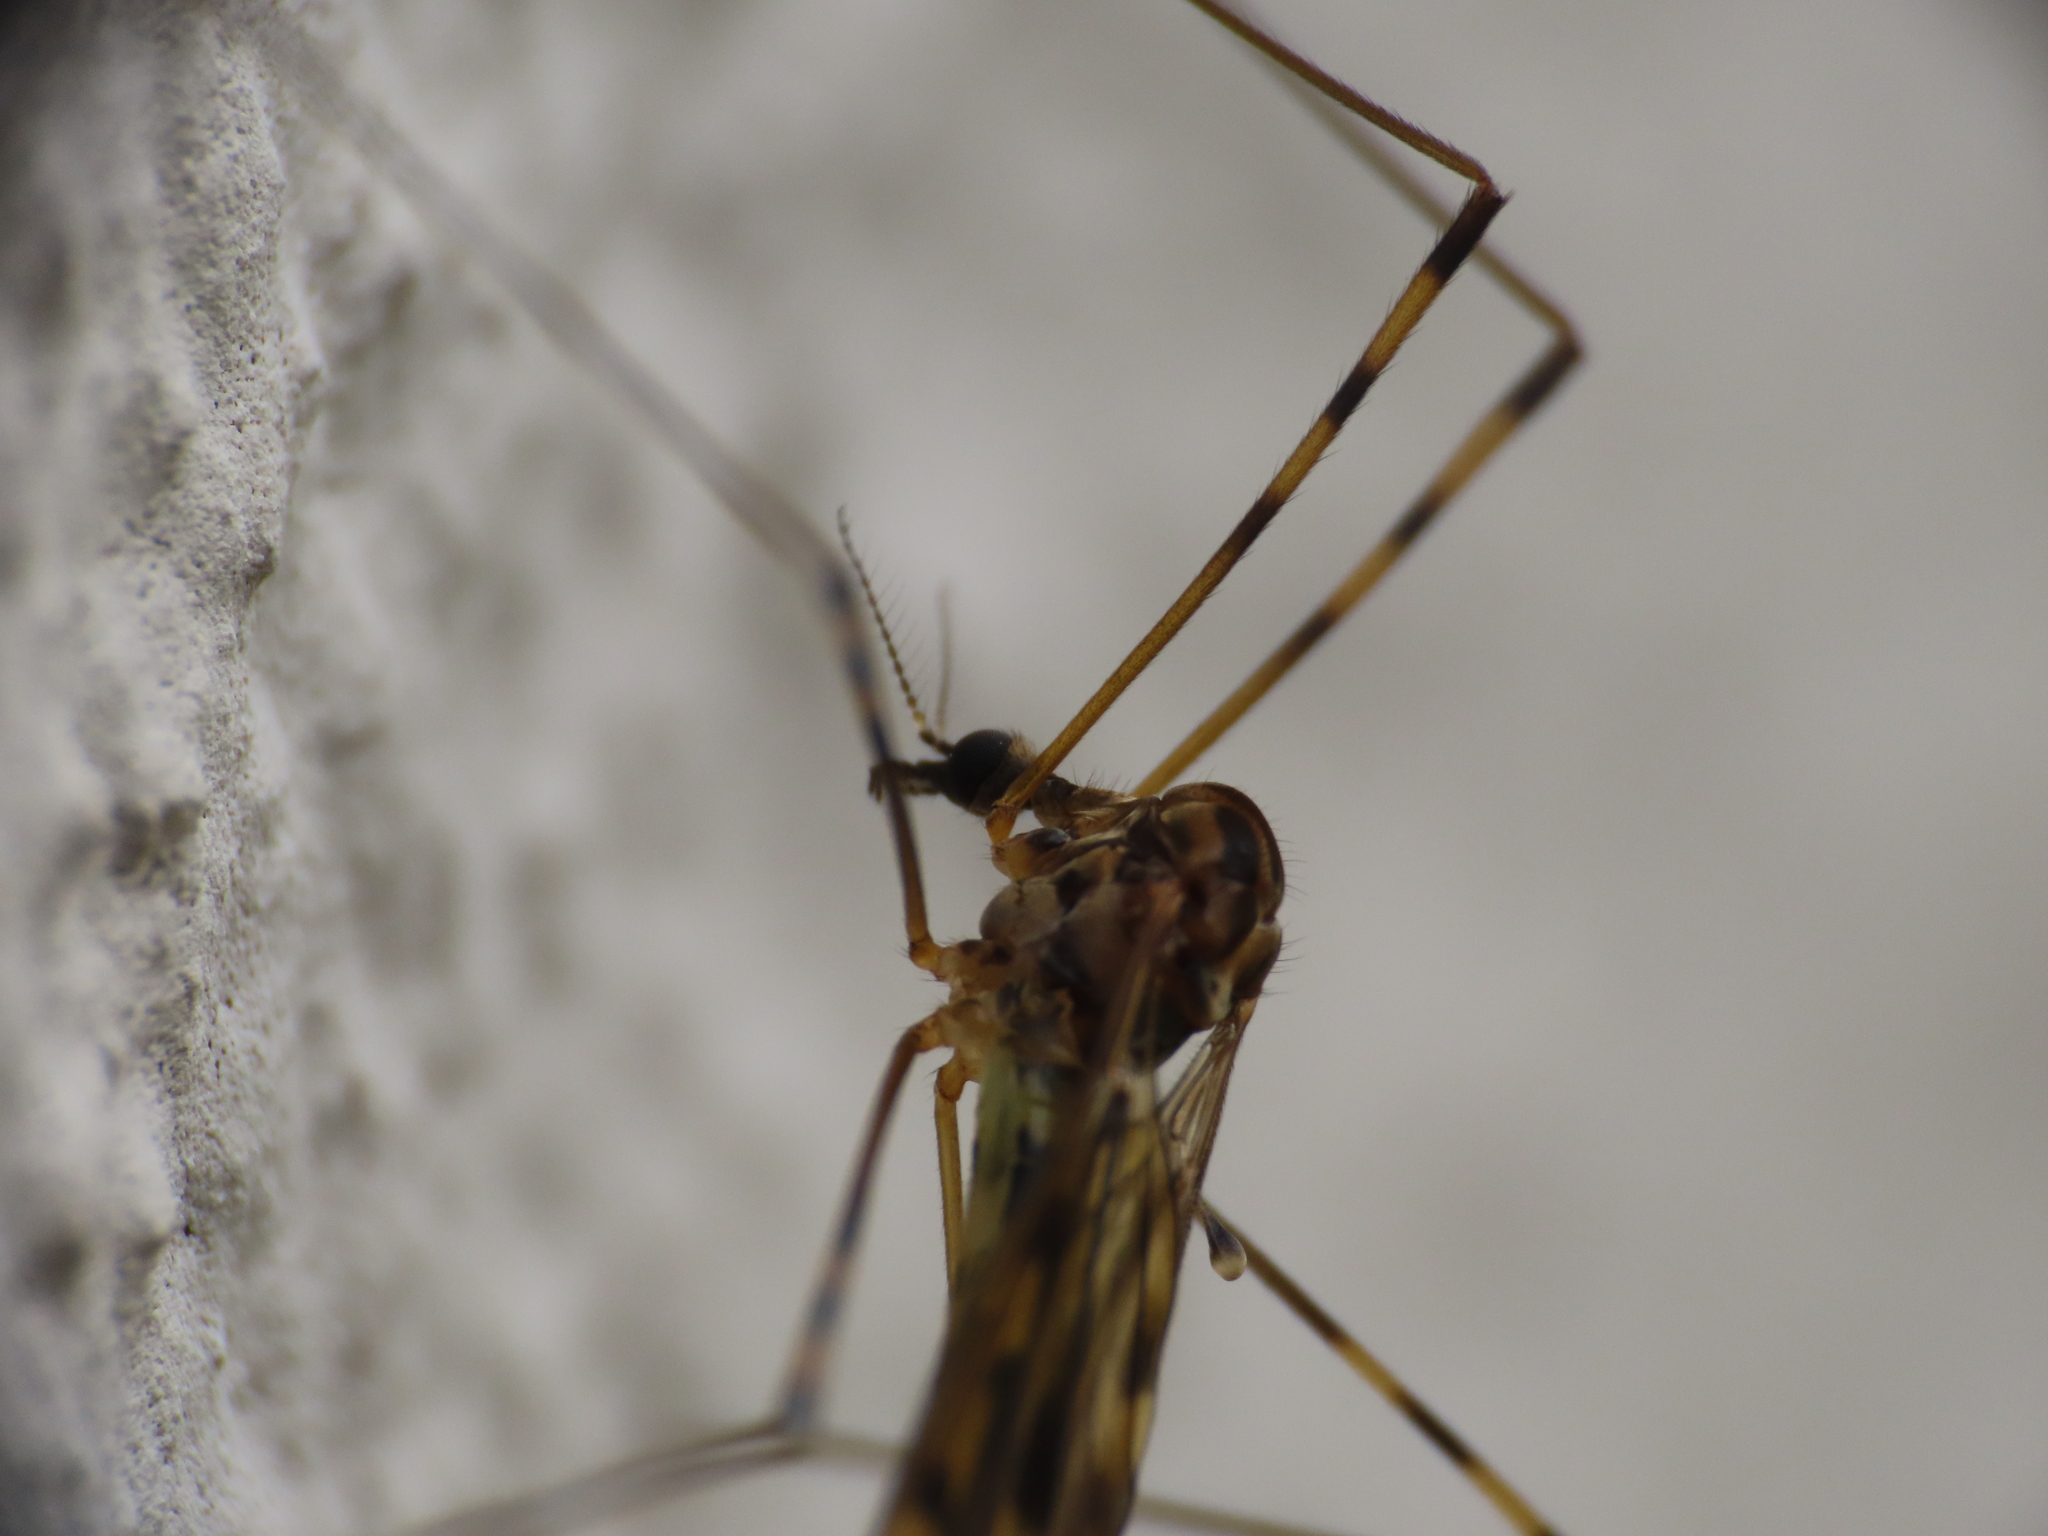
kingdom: Animalia
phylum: Arthropoda
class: Insecta
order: Diptera
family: Limoniidae
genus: Limonia
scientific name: Limonia nubeculosa
